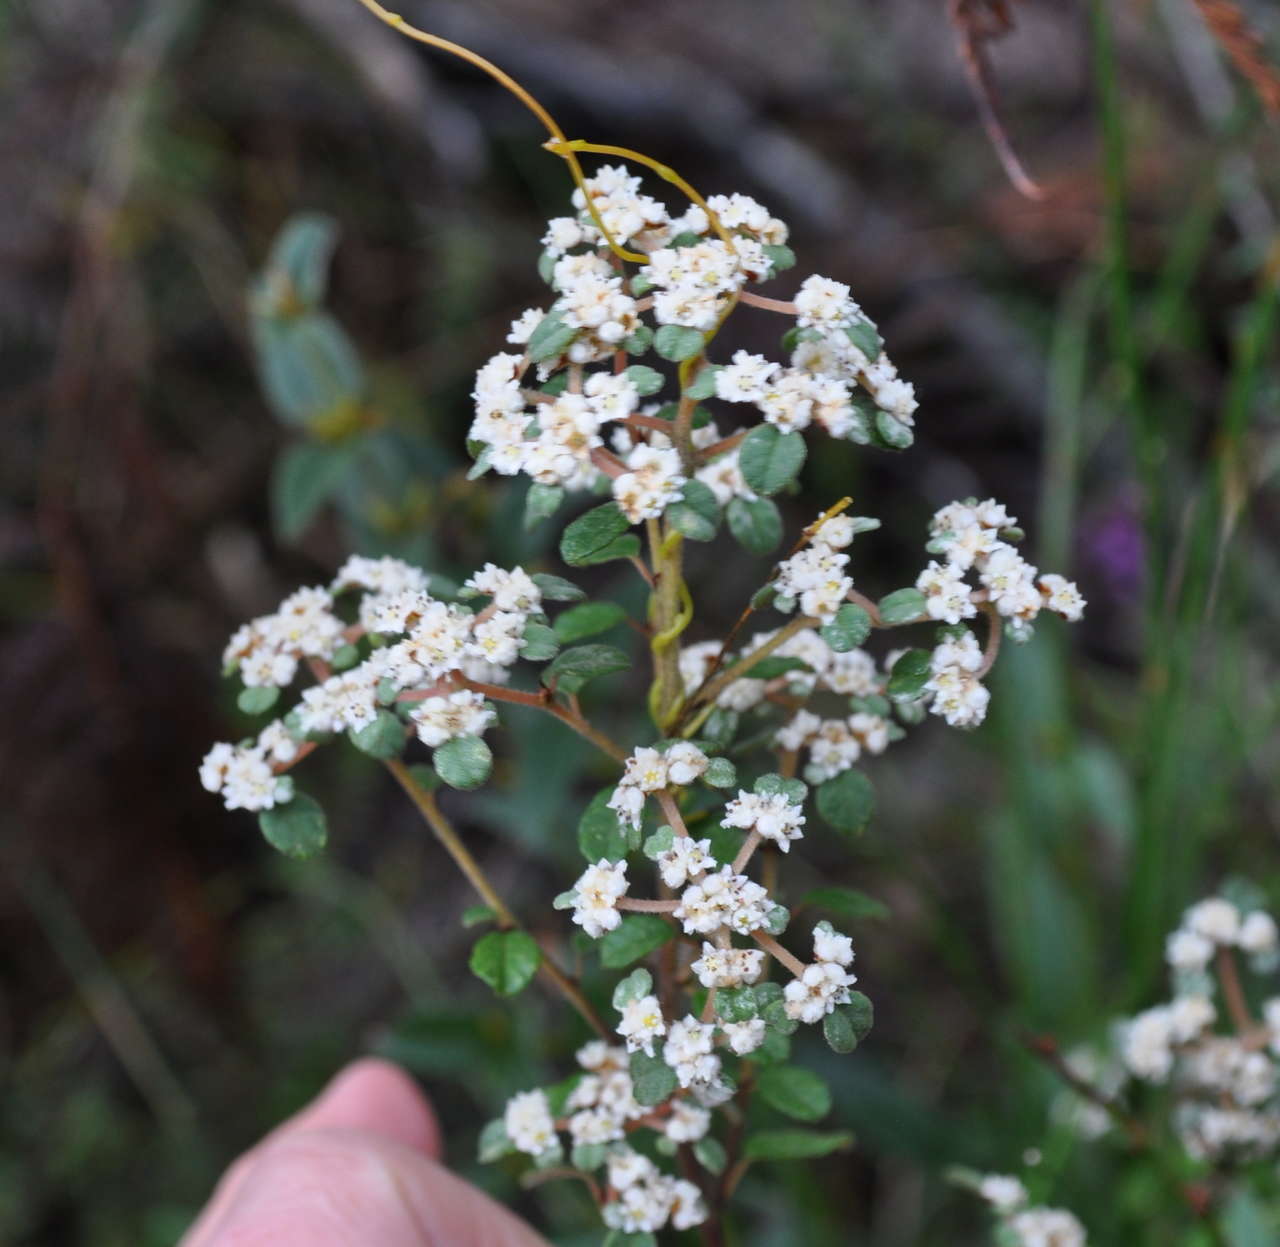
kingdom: Plantae
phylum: Tracheophyta
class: Magnoliopsida
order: Rosales
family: Rhamnaceae
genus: Spyridium
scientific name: Spyridium parvifolium
